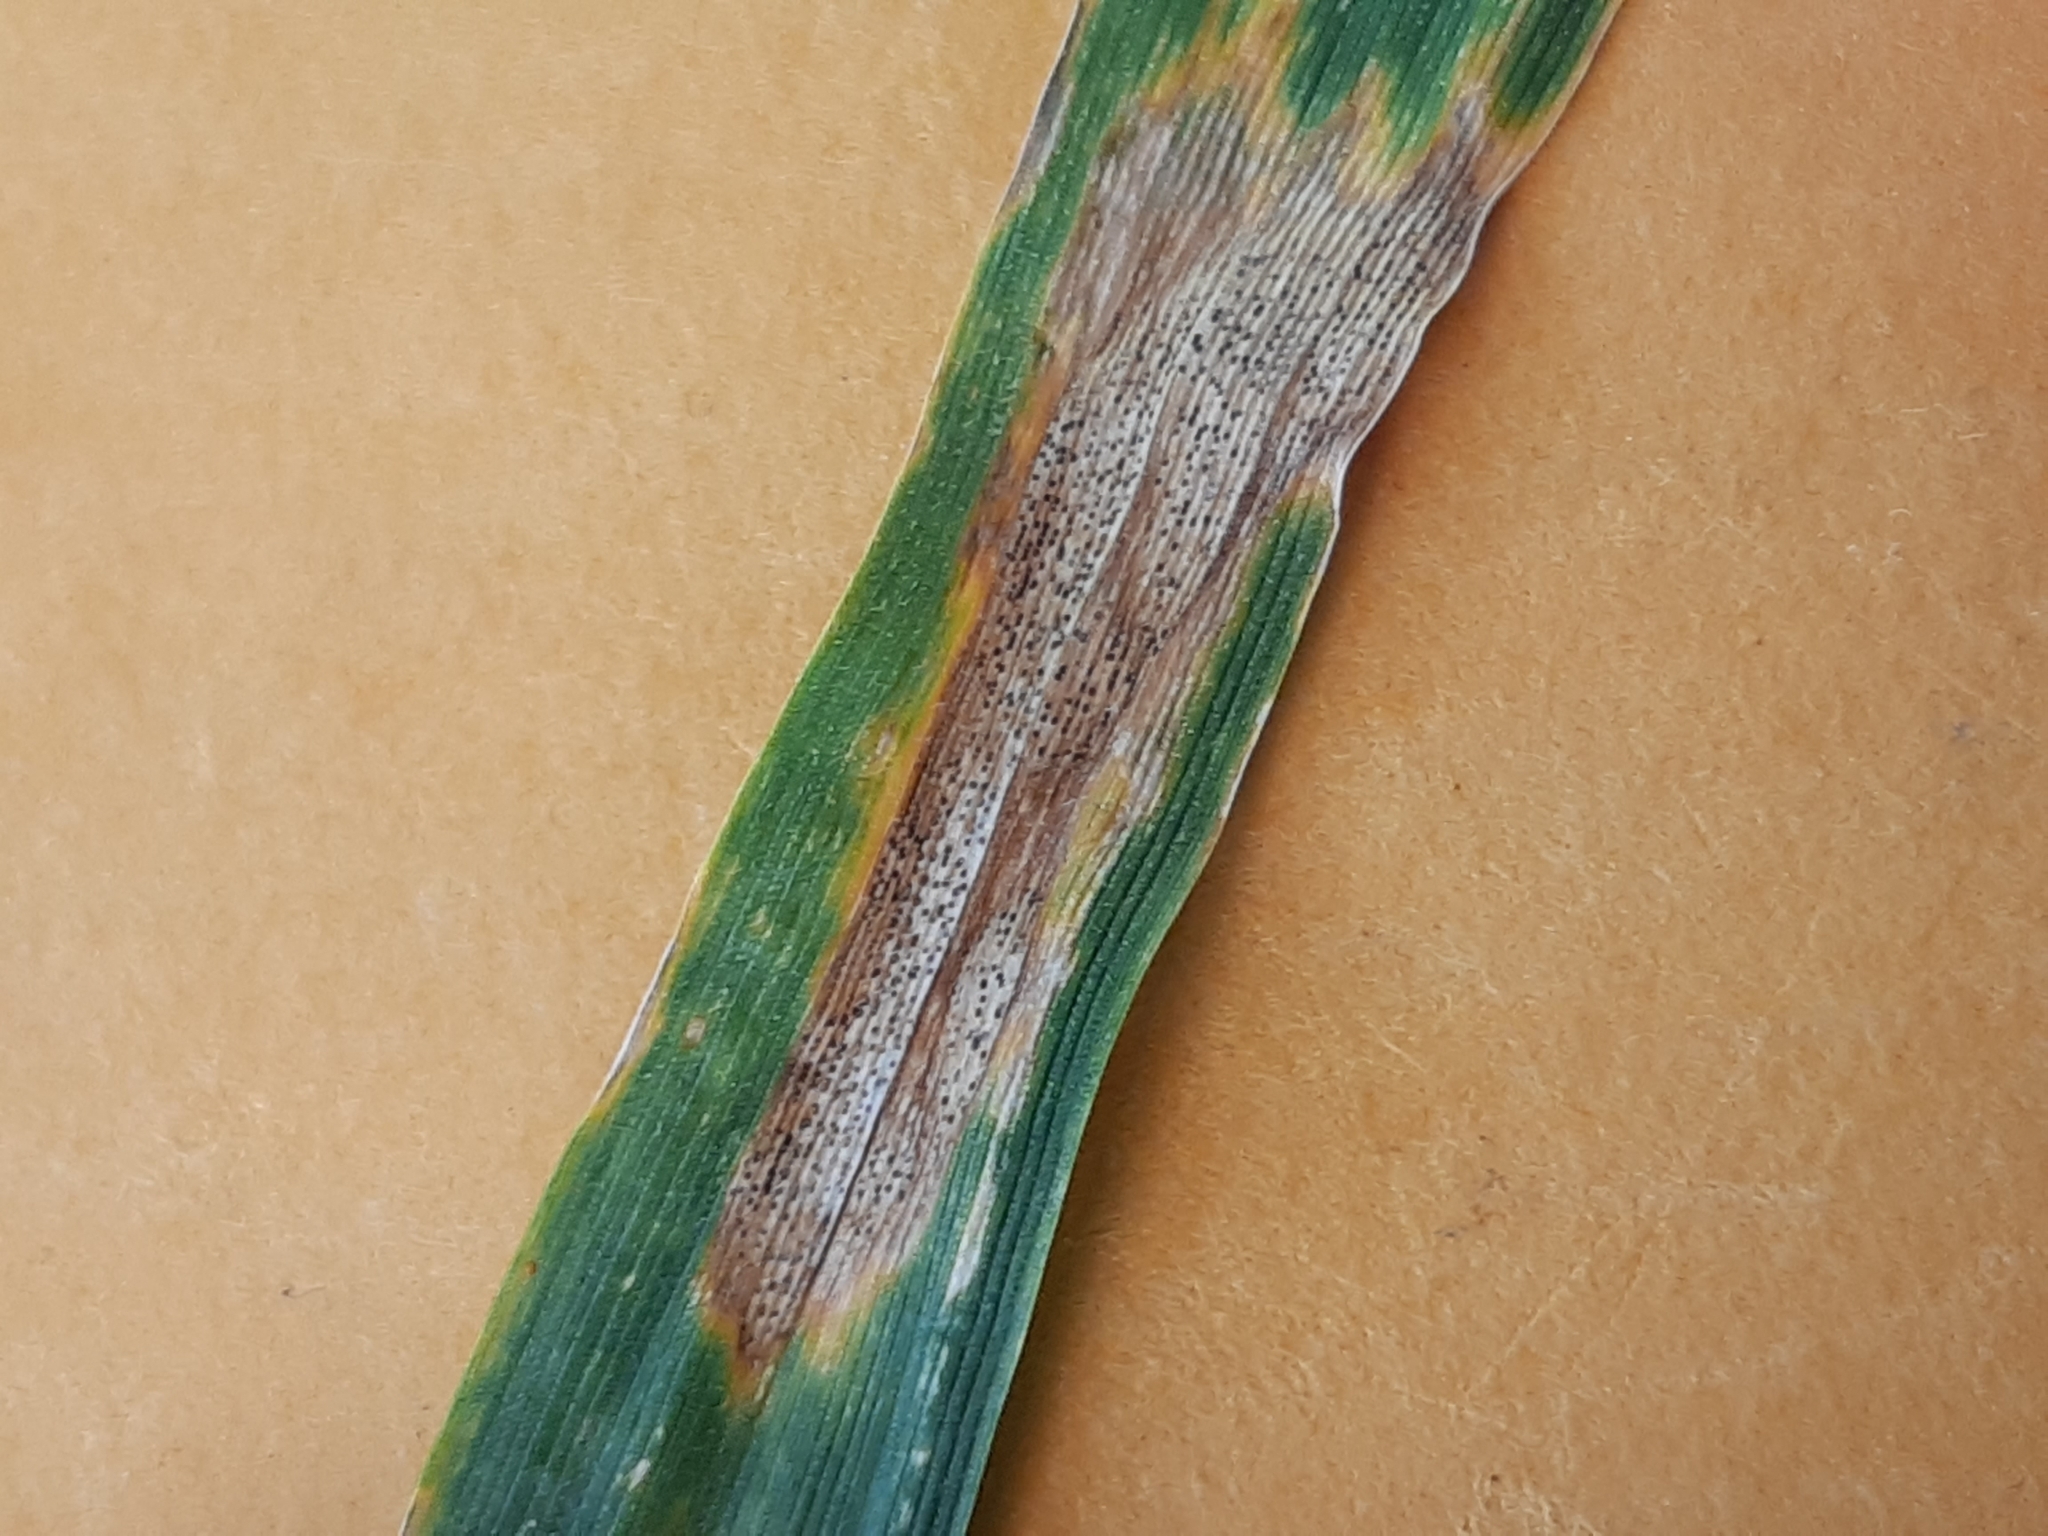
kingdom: Fungi
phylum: Ascomycota
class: Dothideomycetes
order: Mycosphaerellales
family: Mycosphaerellaceae
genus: Zymoseptoria
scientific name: Zymoseptoria tritici
